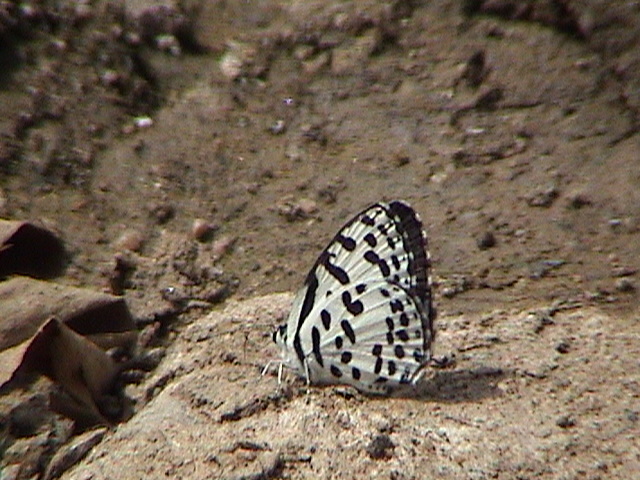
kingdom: Animalia
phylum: Arthropoda
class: Insecta
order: Lepidoptera
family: Lycaenidae
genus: Castalius
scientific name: Castalius rosimon
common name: Common pierrot
